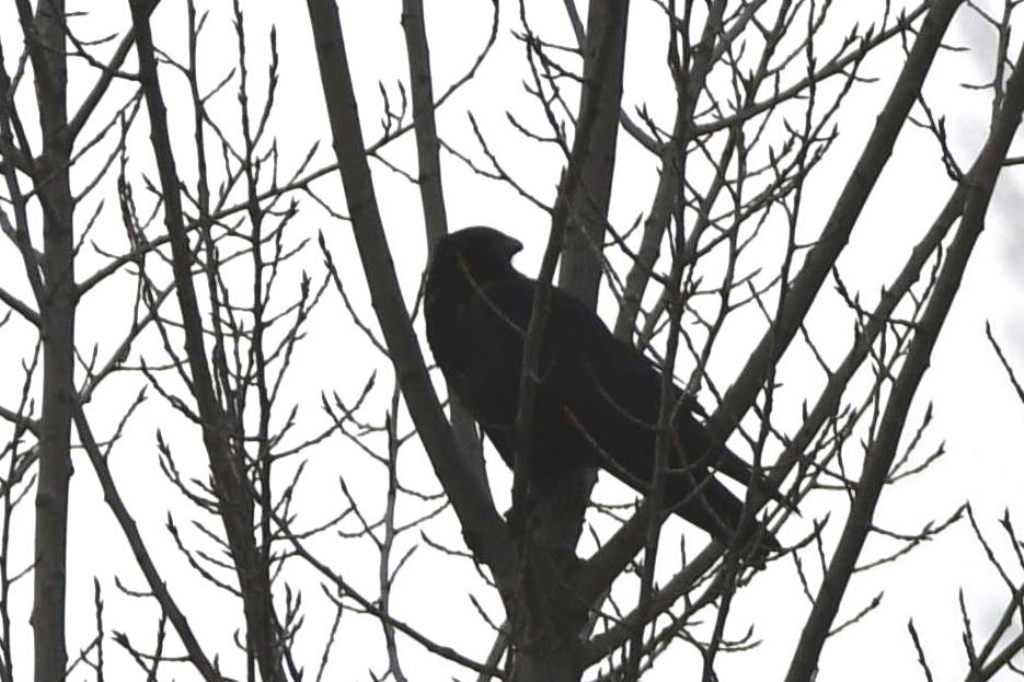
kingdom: Animalia
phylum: Chordata
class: Aves
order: Passeriformes
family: Corvidae
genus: Corvus
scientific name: Corvus corone
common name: Carrion crow
